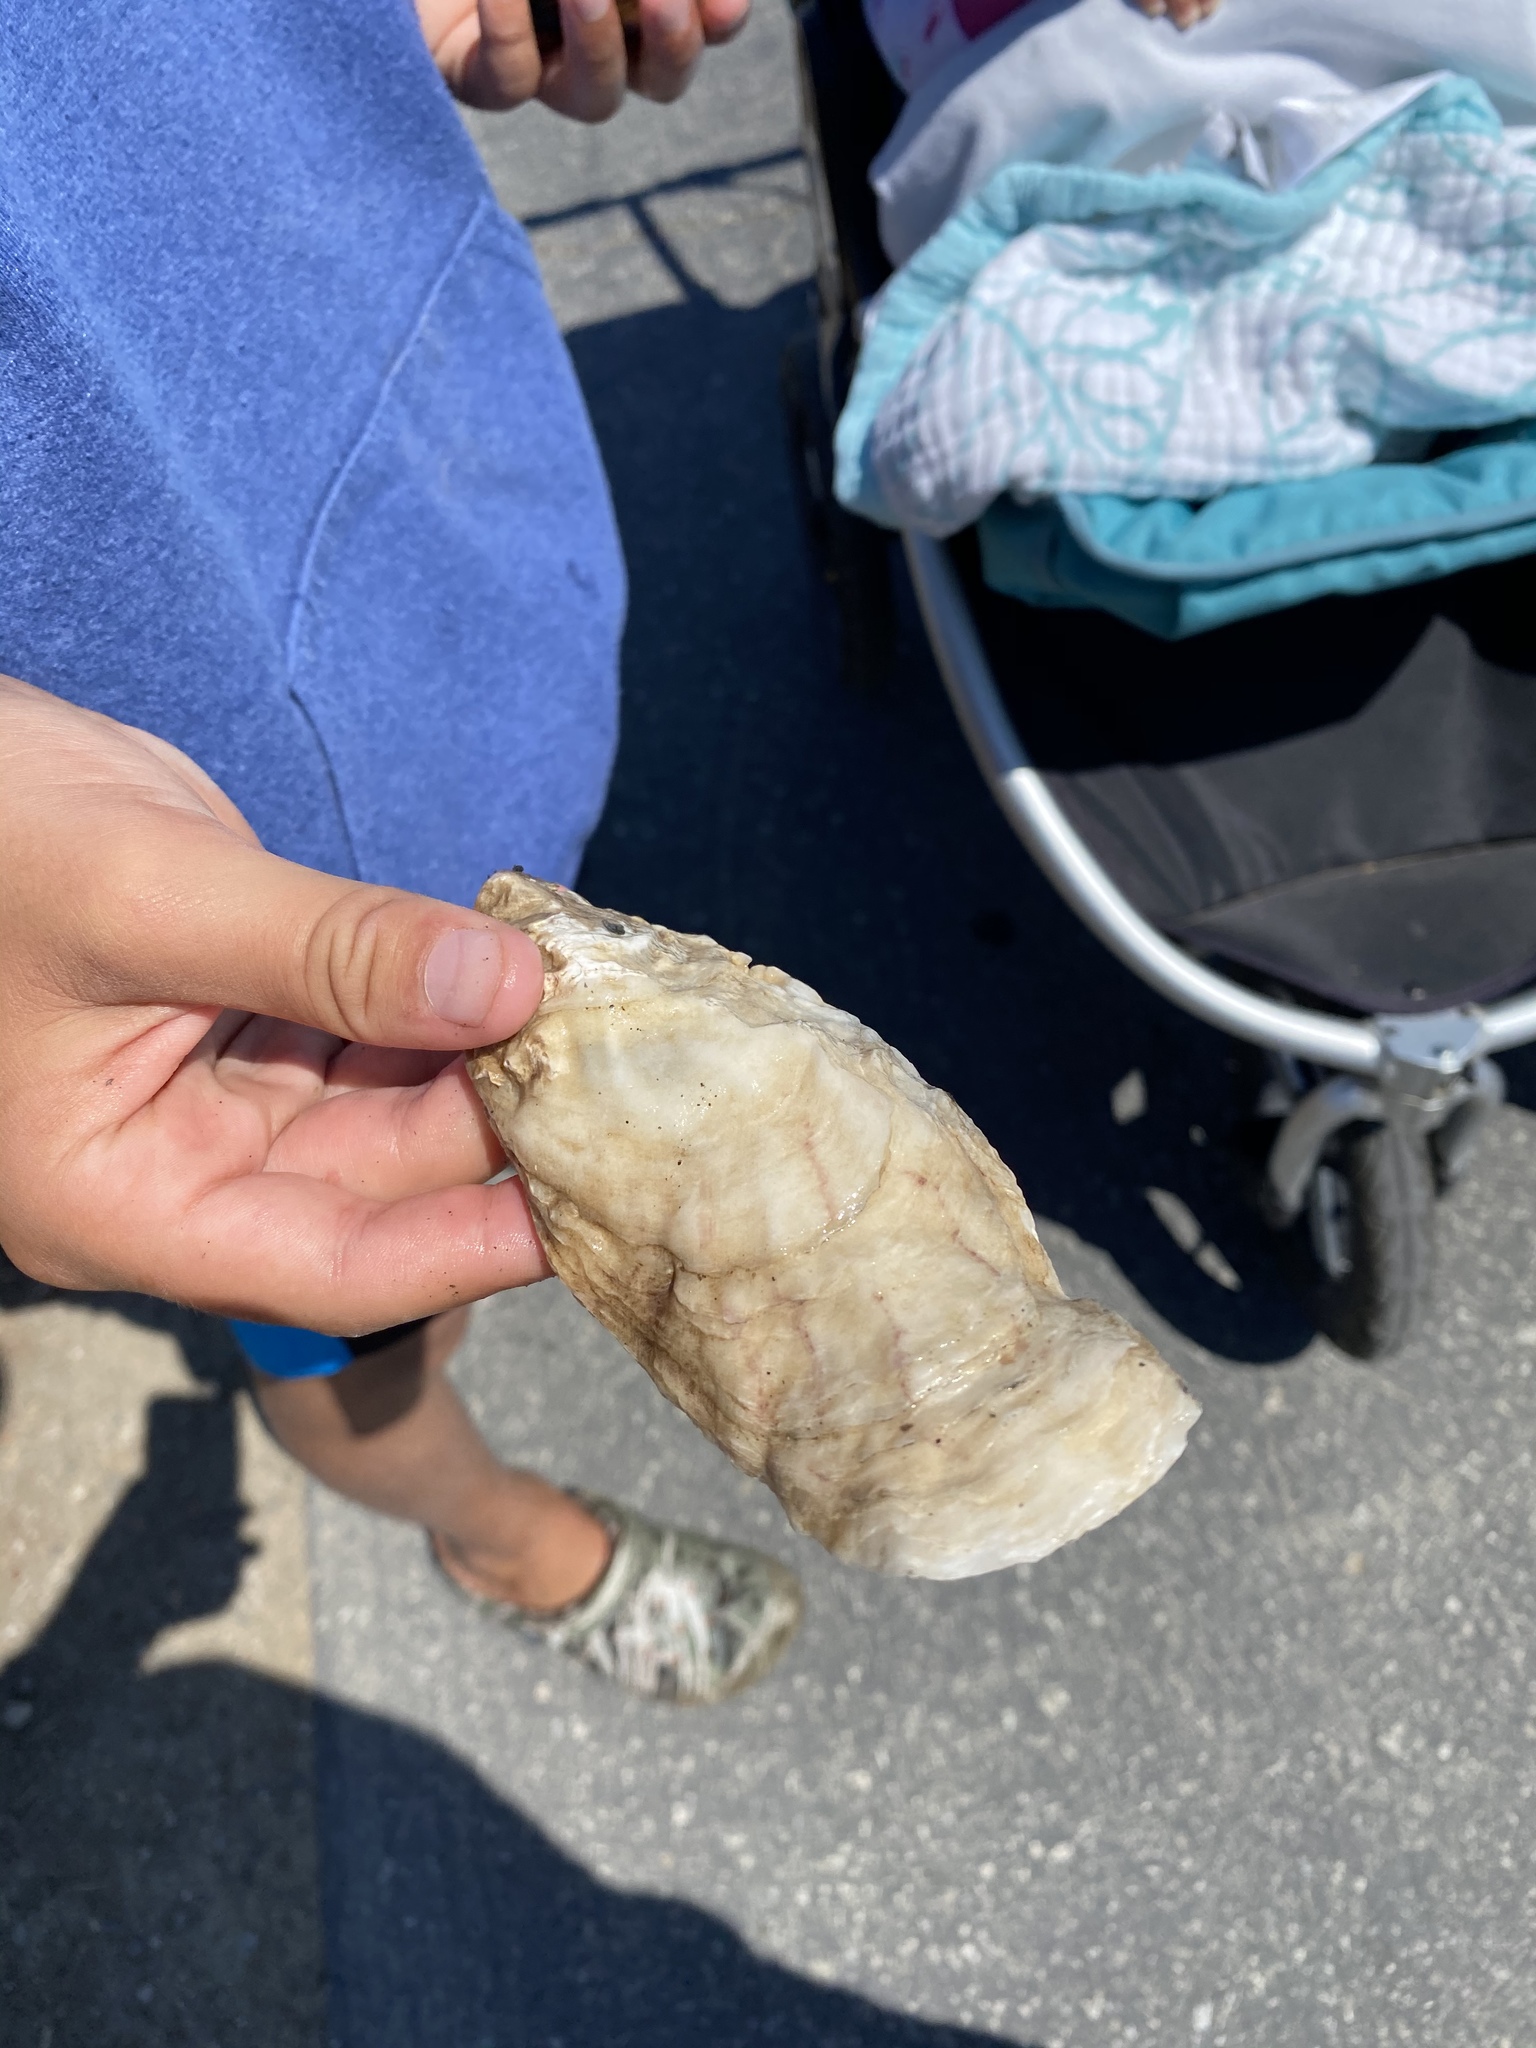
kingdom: Animalia
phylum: Mollusca
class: Bivalvia
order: Ostreida
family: Ostreidae
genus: Magallana
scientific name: Magallana gigas
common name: Pacific oyster
